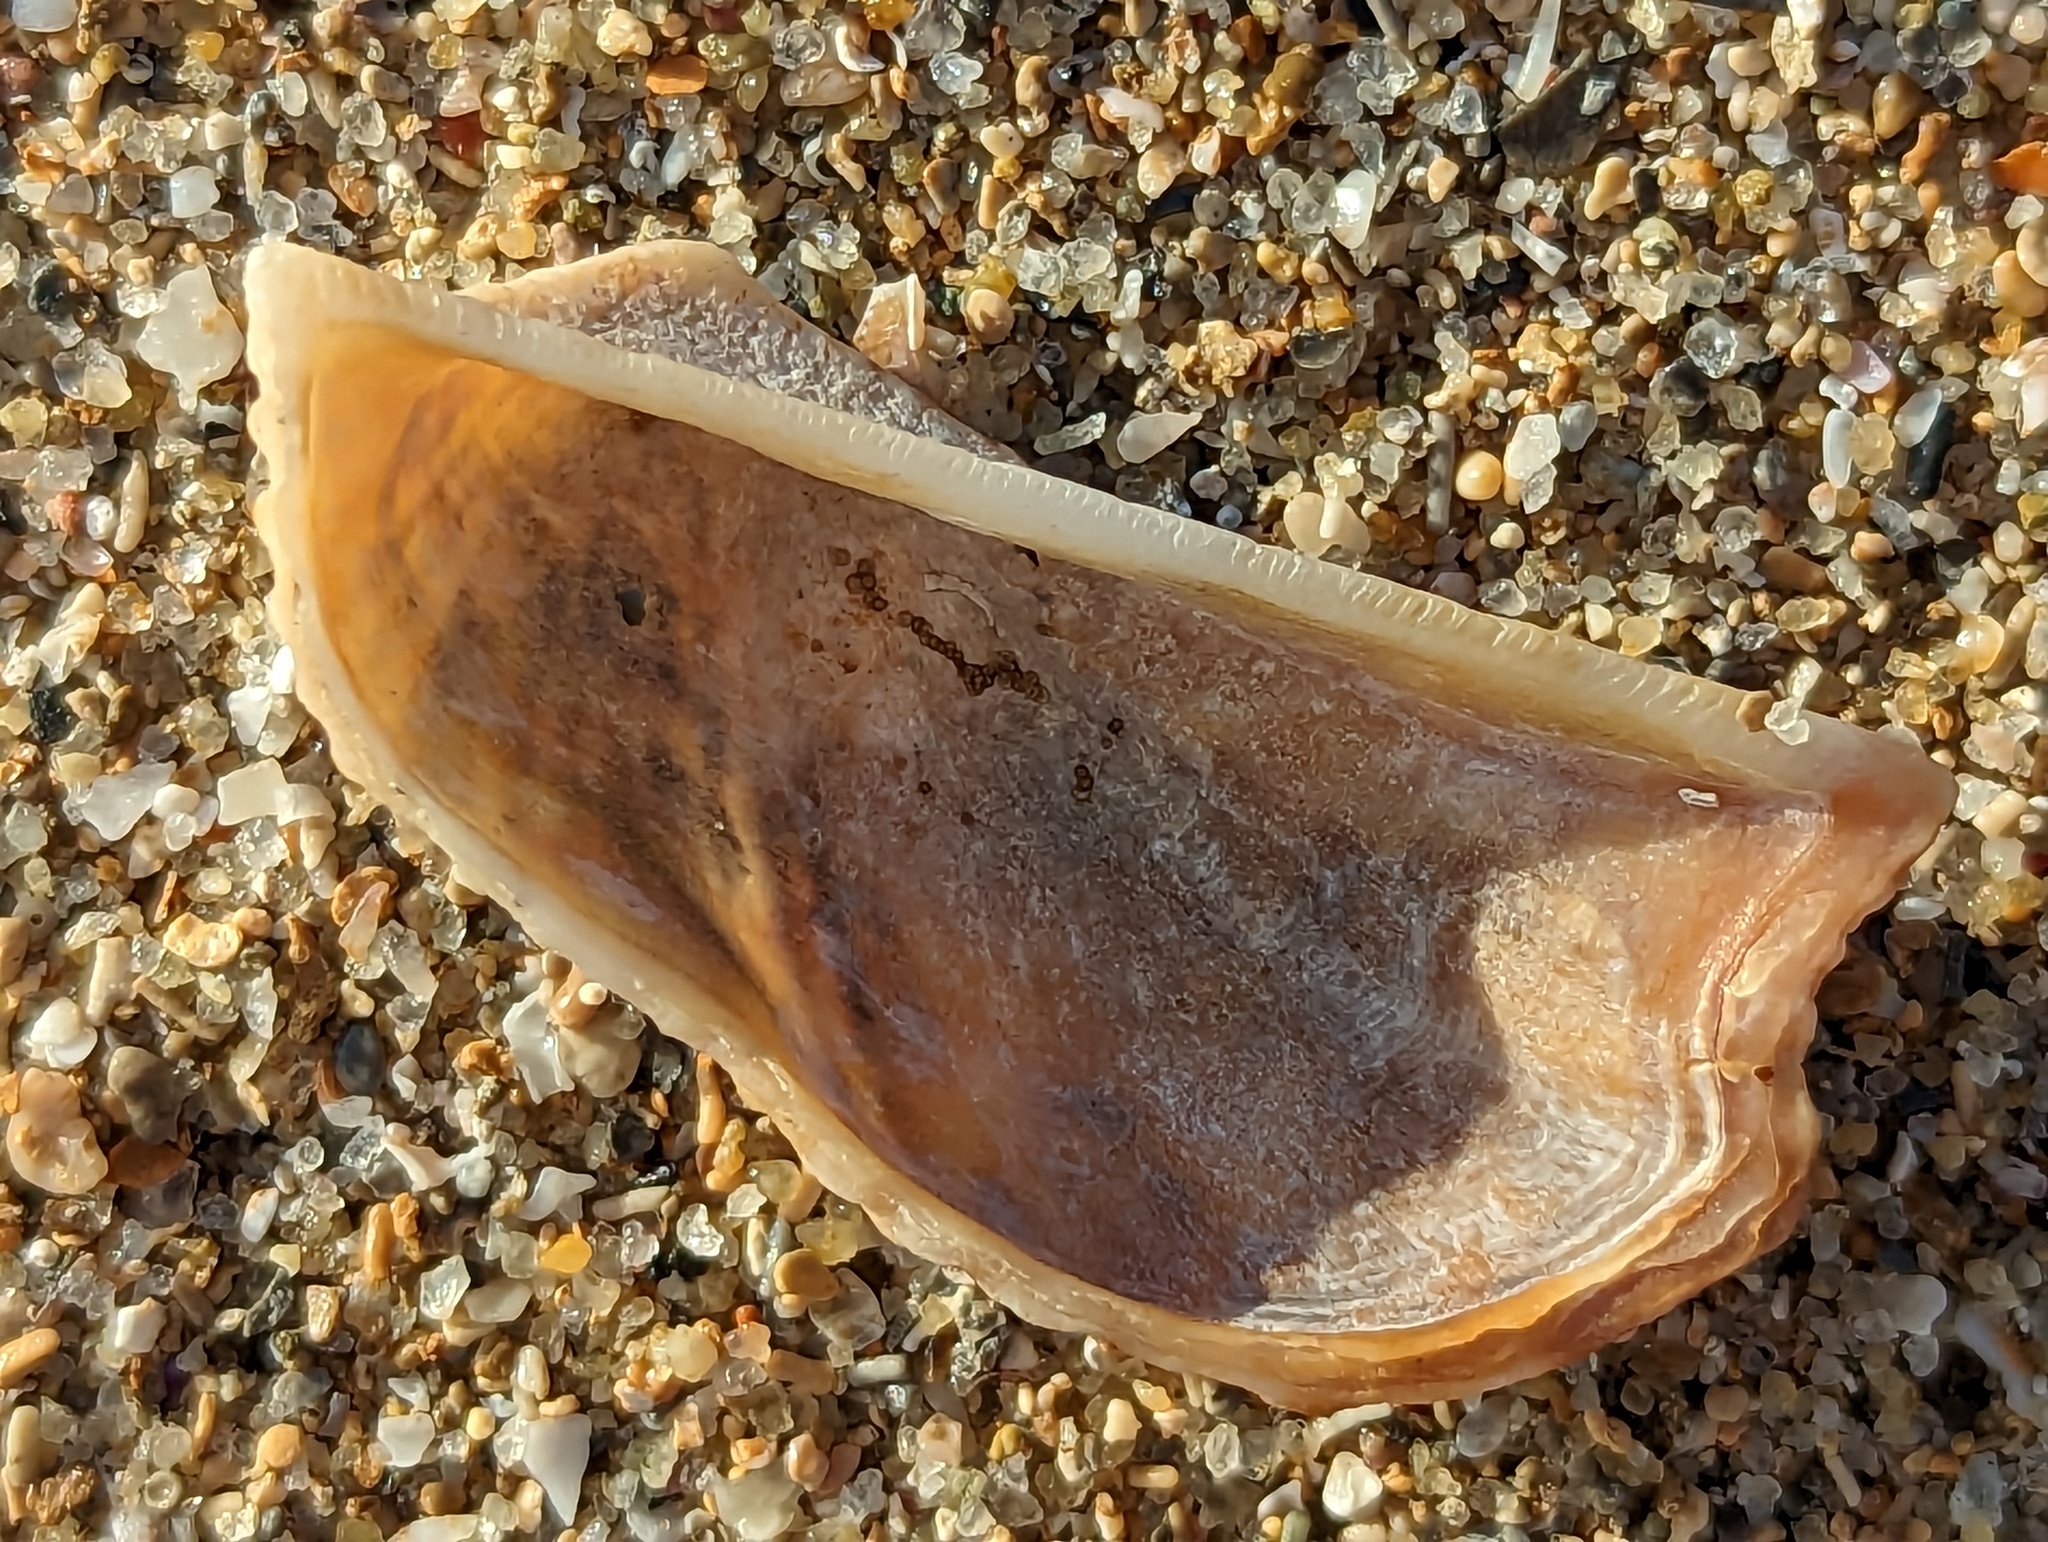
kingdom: Animalia
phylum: Mollusca
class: Bivalvia
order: Arcida
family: Arcidae
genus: Arca
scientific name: Arca zebra
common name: Atlantic turkey wing
